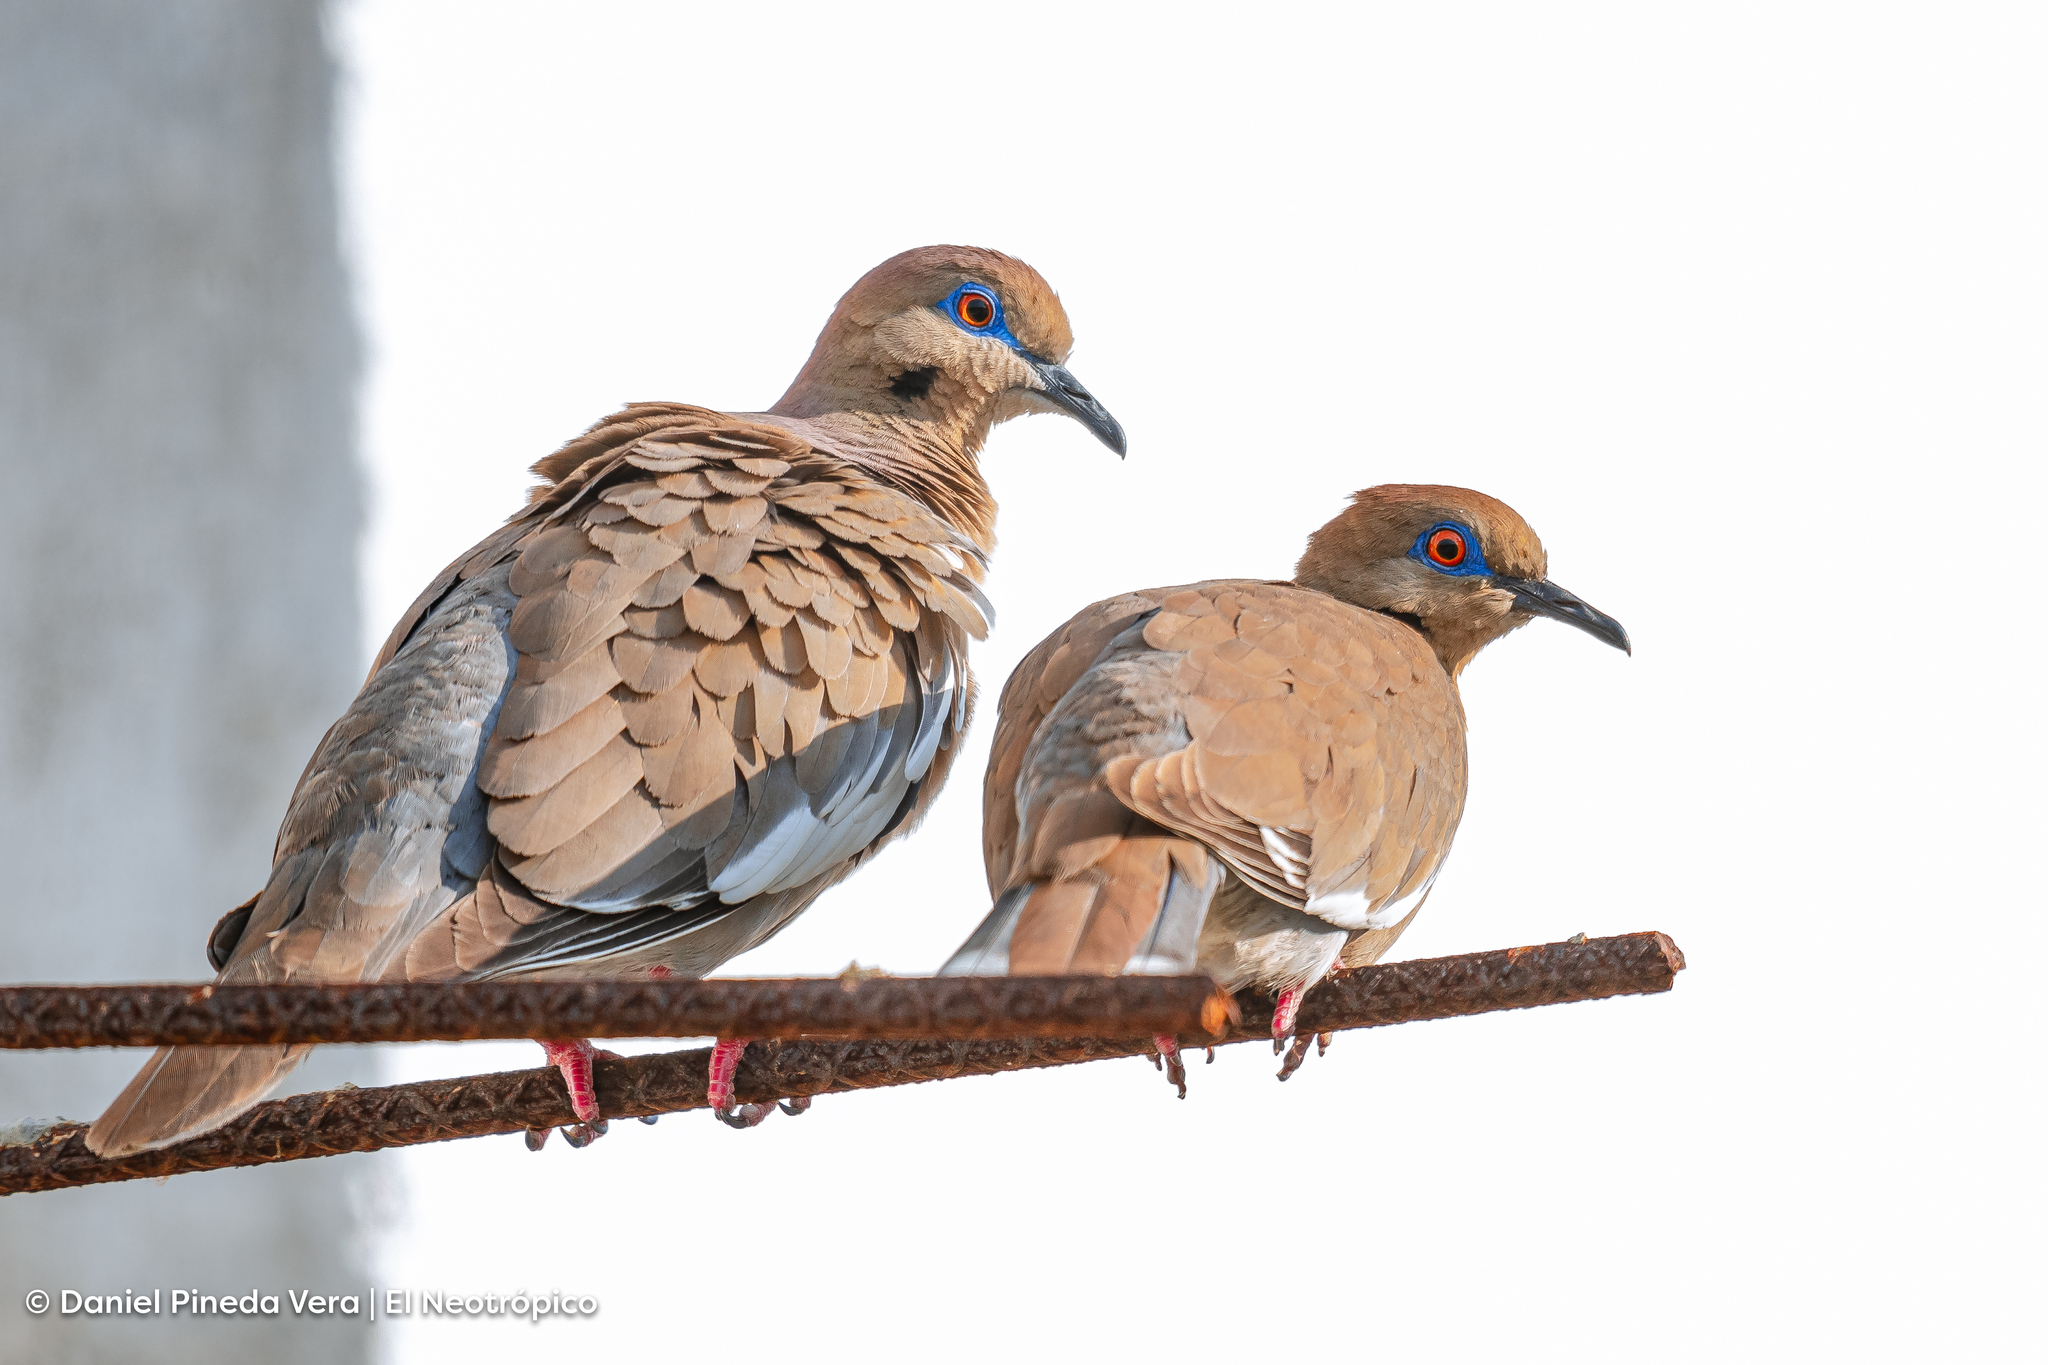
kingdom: Animalia
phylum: Chordata
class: Aves
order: Columbiformes
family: Columbidae
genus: Zenaida
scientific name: Zenaida asiatica
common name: White-winged dove
